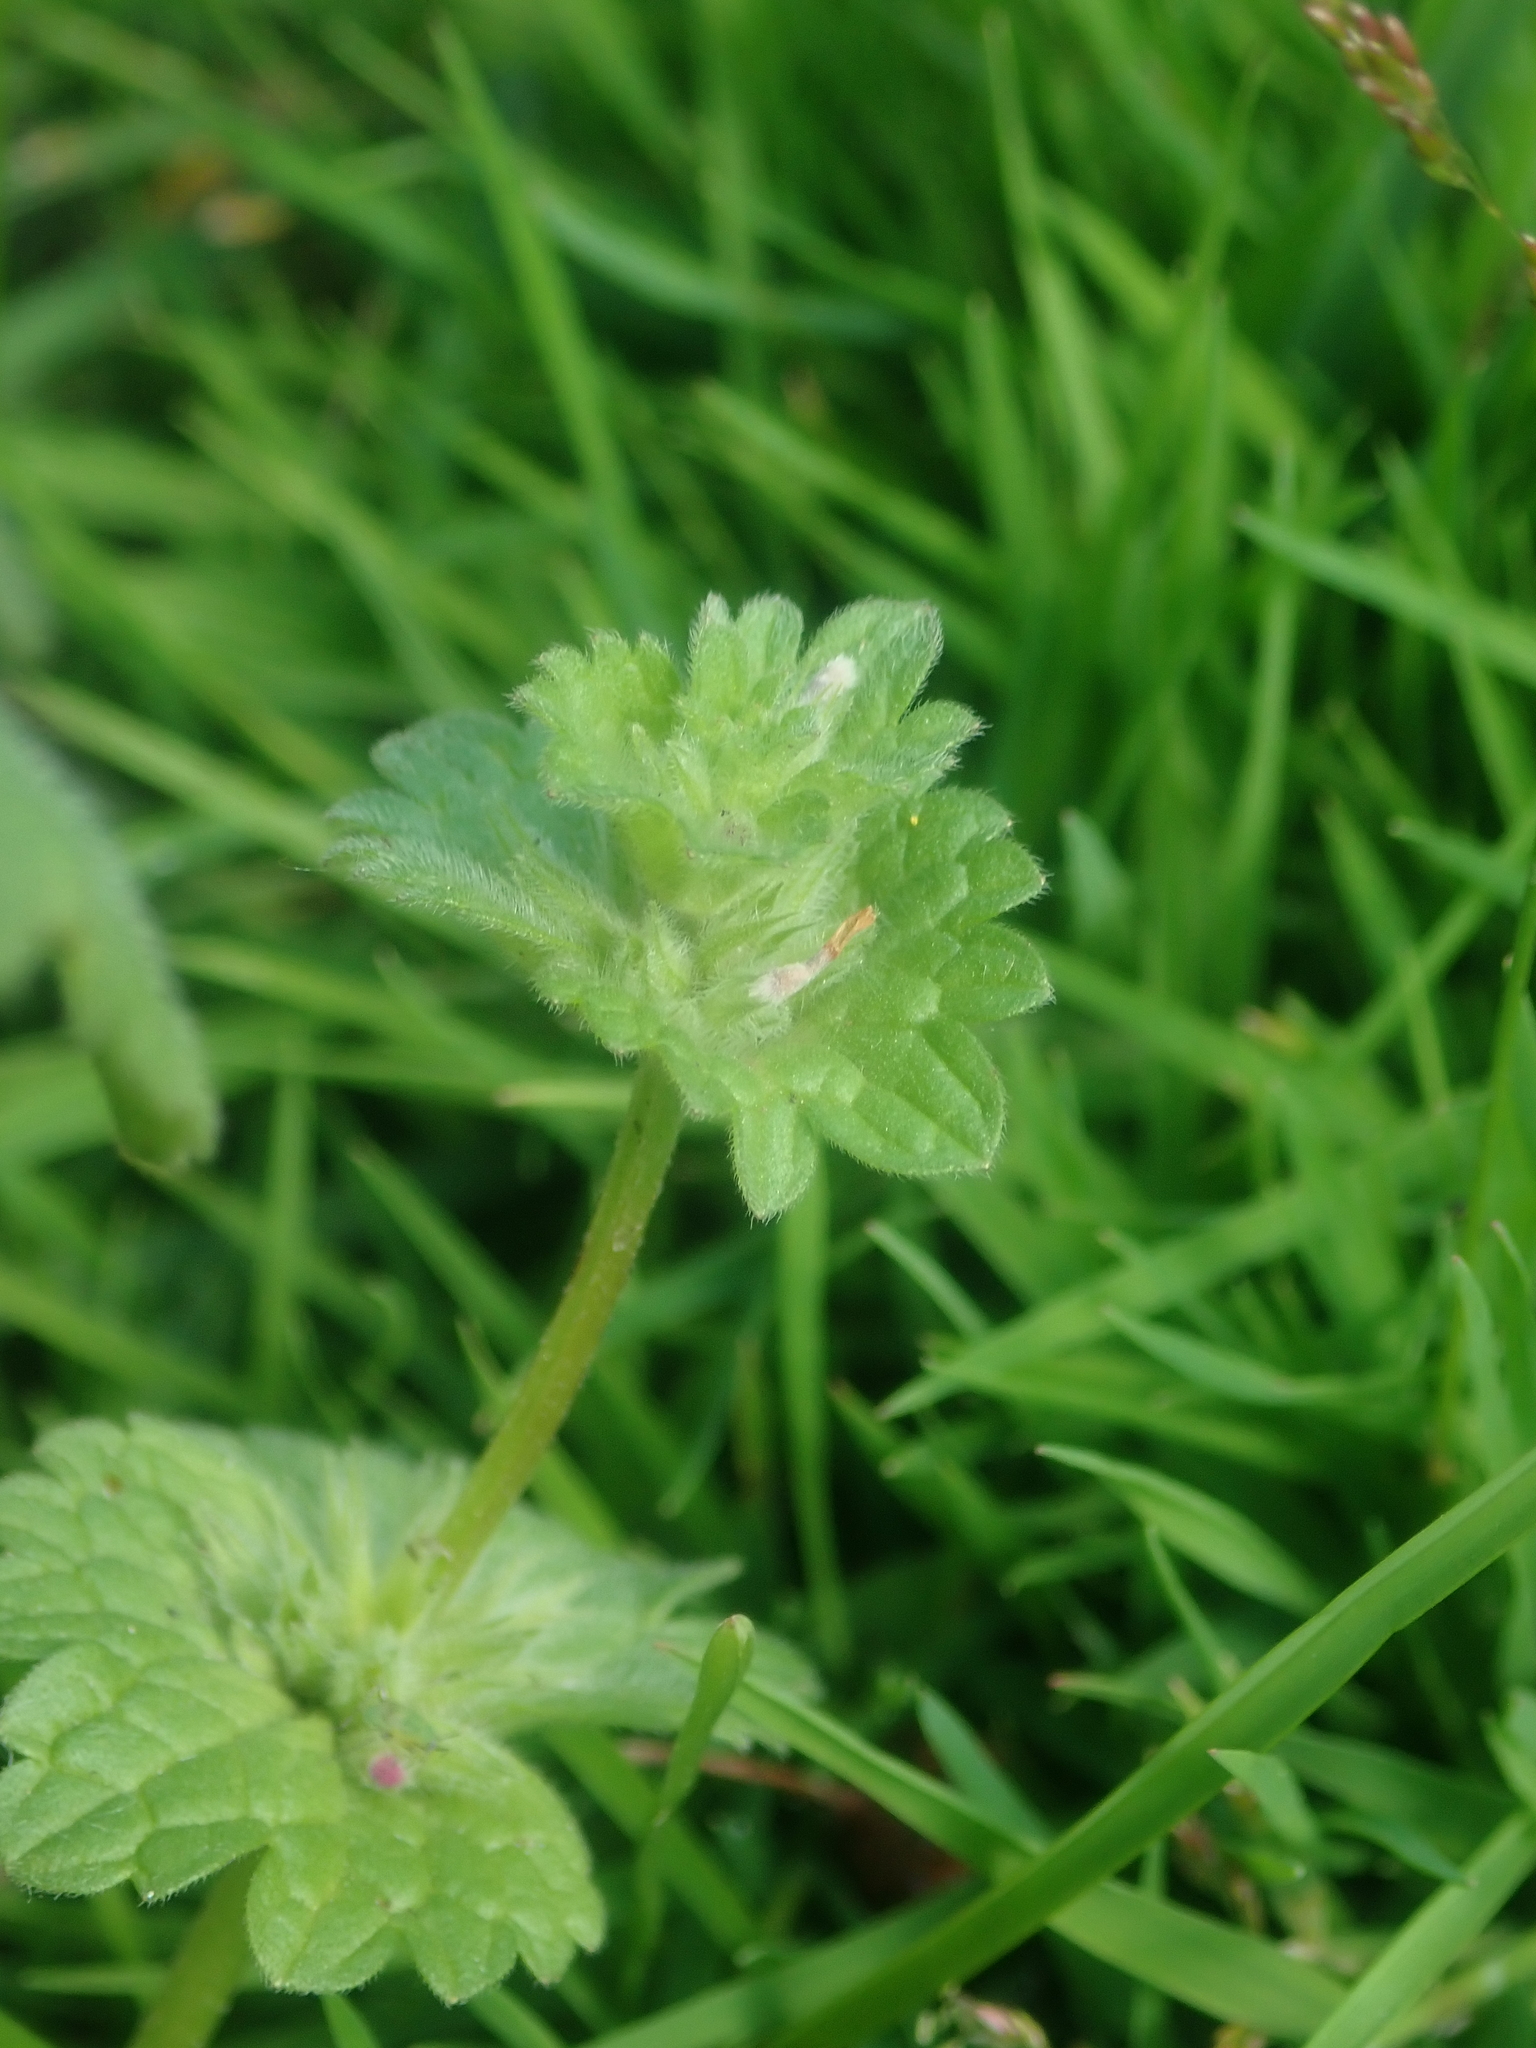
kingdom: Plantae
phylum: Tracheophyta
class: Magnoliopsida
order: Lamiales
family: Lamiaceae
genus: Lamium
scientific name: Lamium amplexicaule
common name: Henbit dead-nettle
